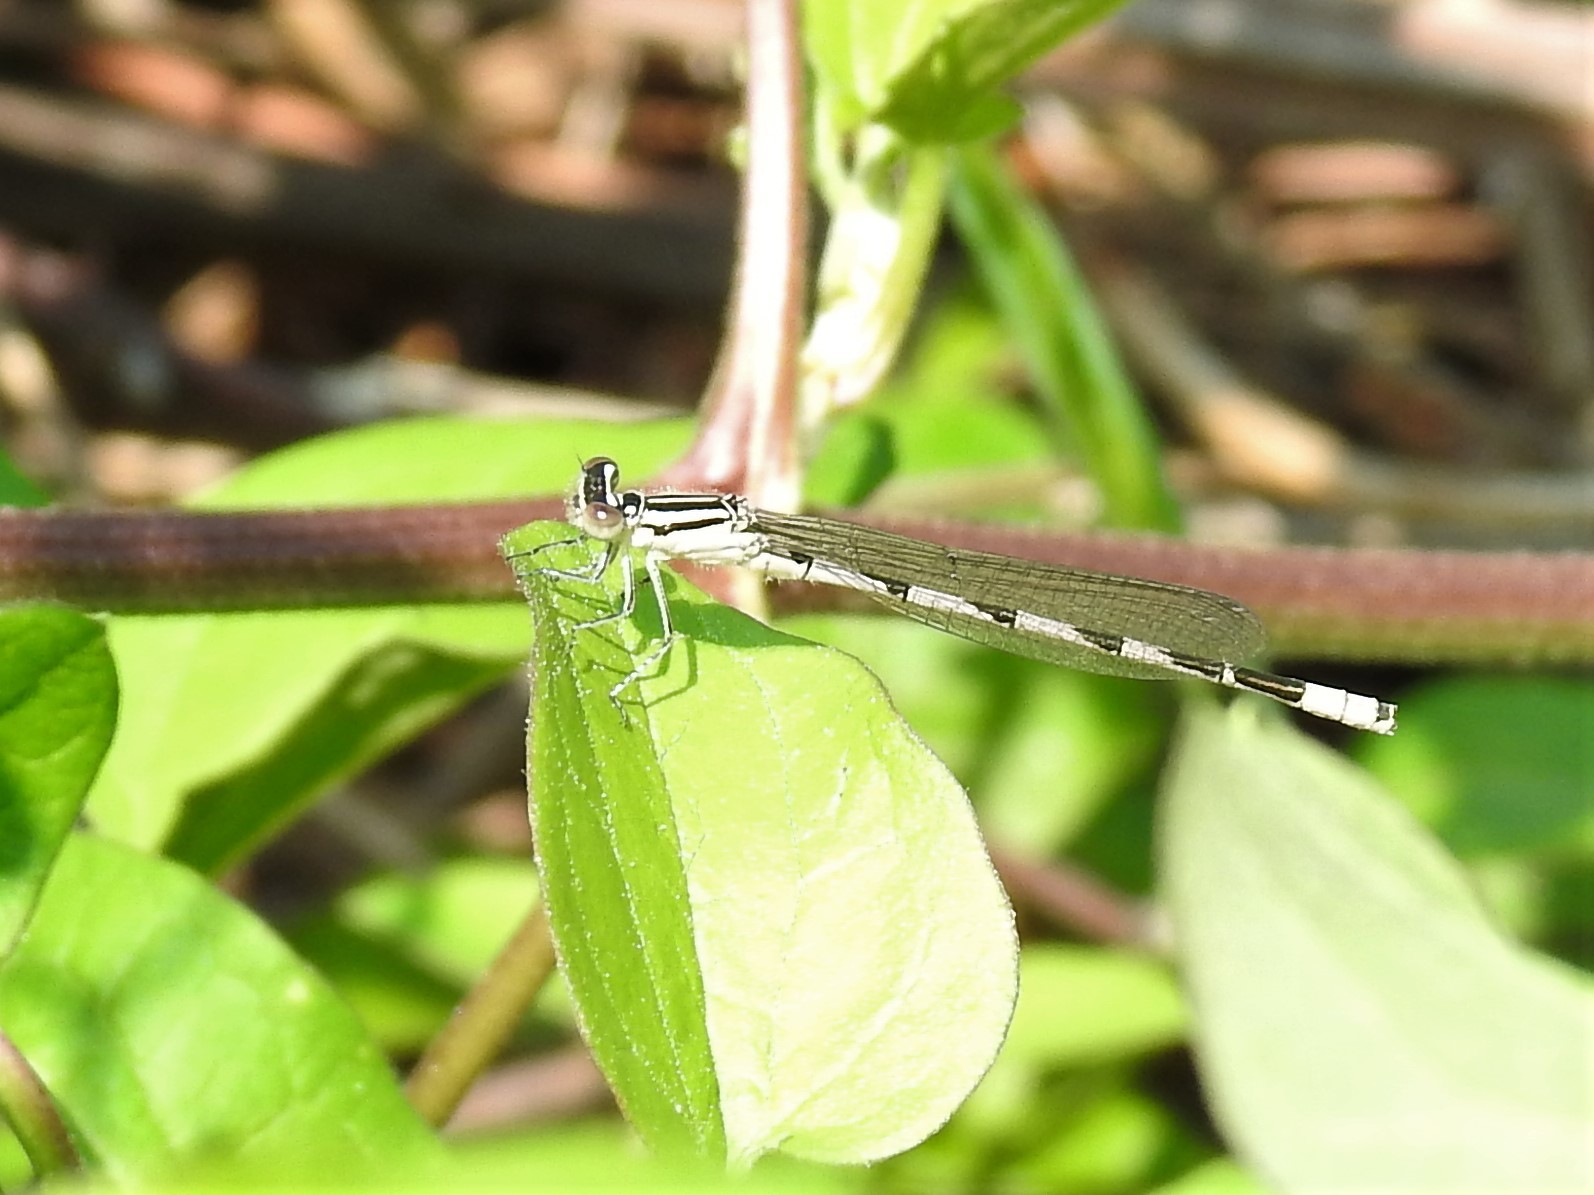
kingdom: Animalia
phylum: Arthropoda
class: Insecta
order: Odonata
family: Coenagrionidae
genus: Enallagma
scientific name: Enallagma durum
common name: Big bluet
